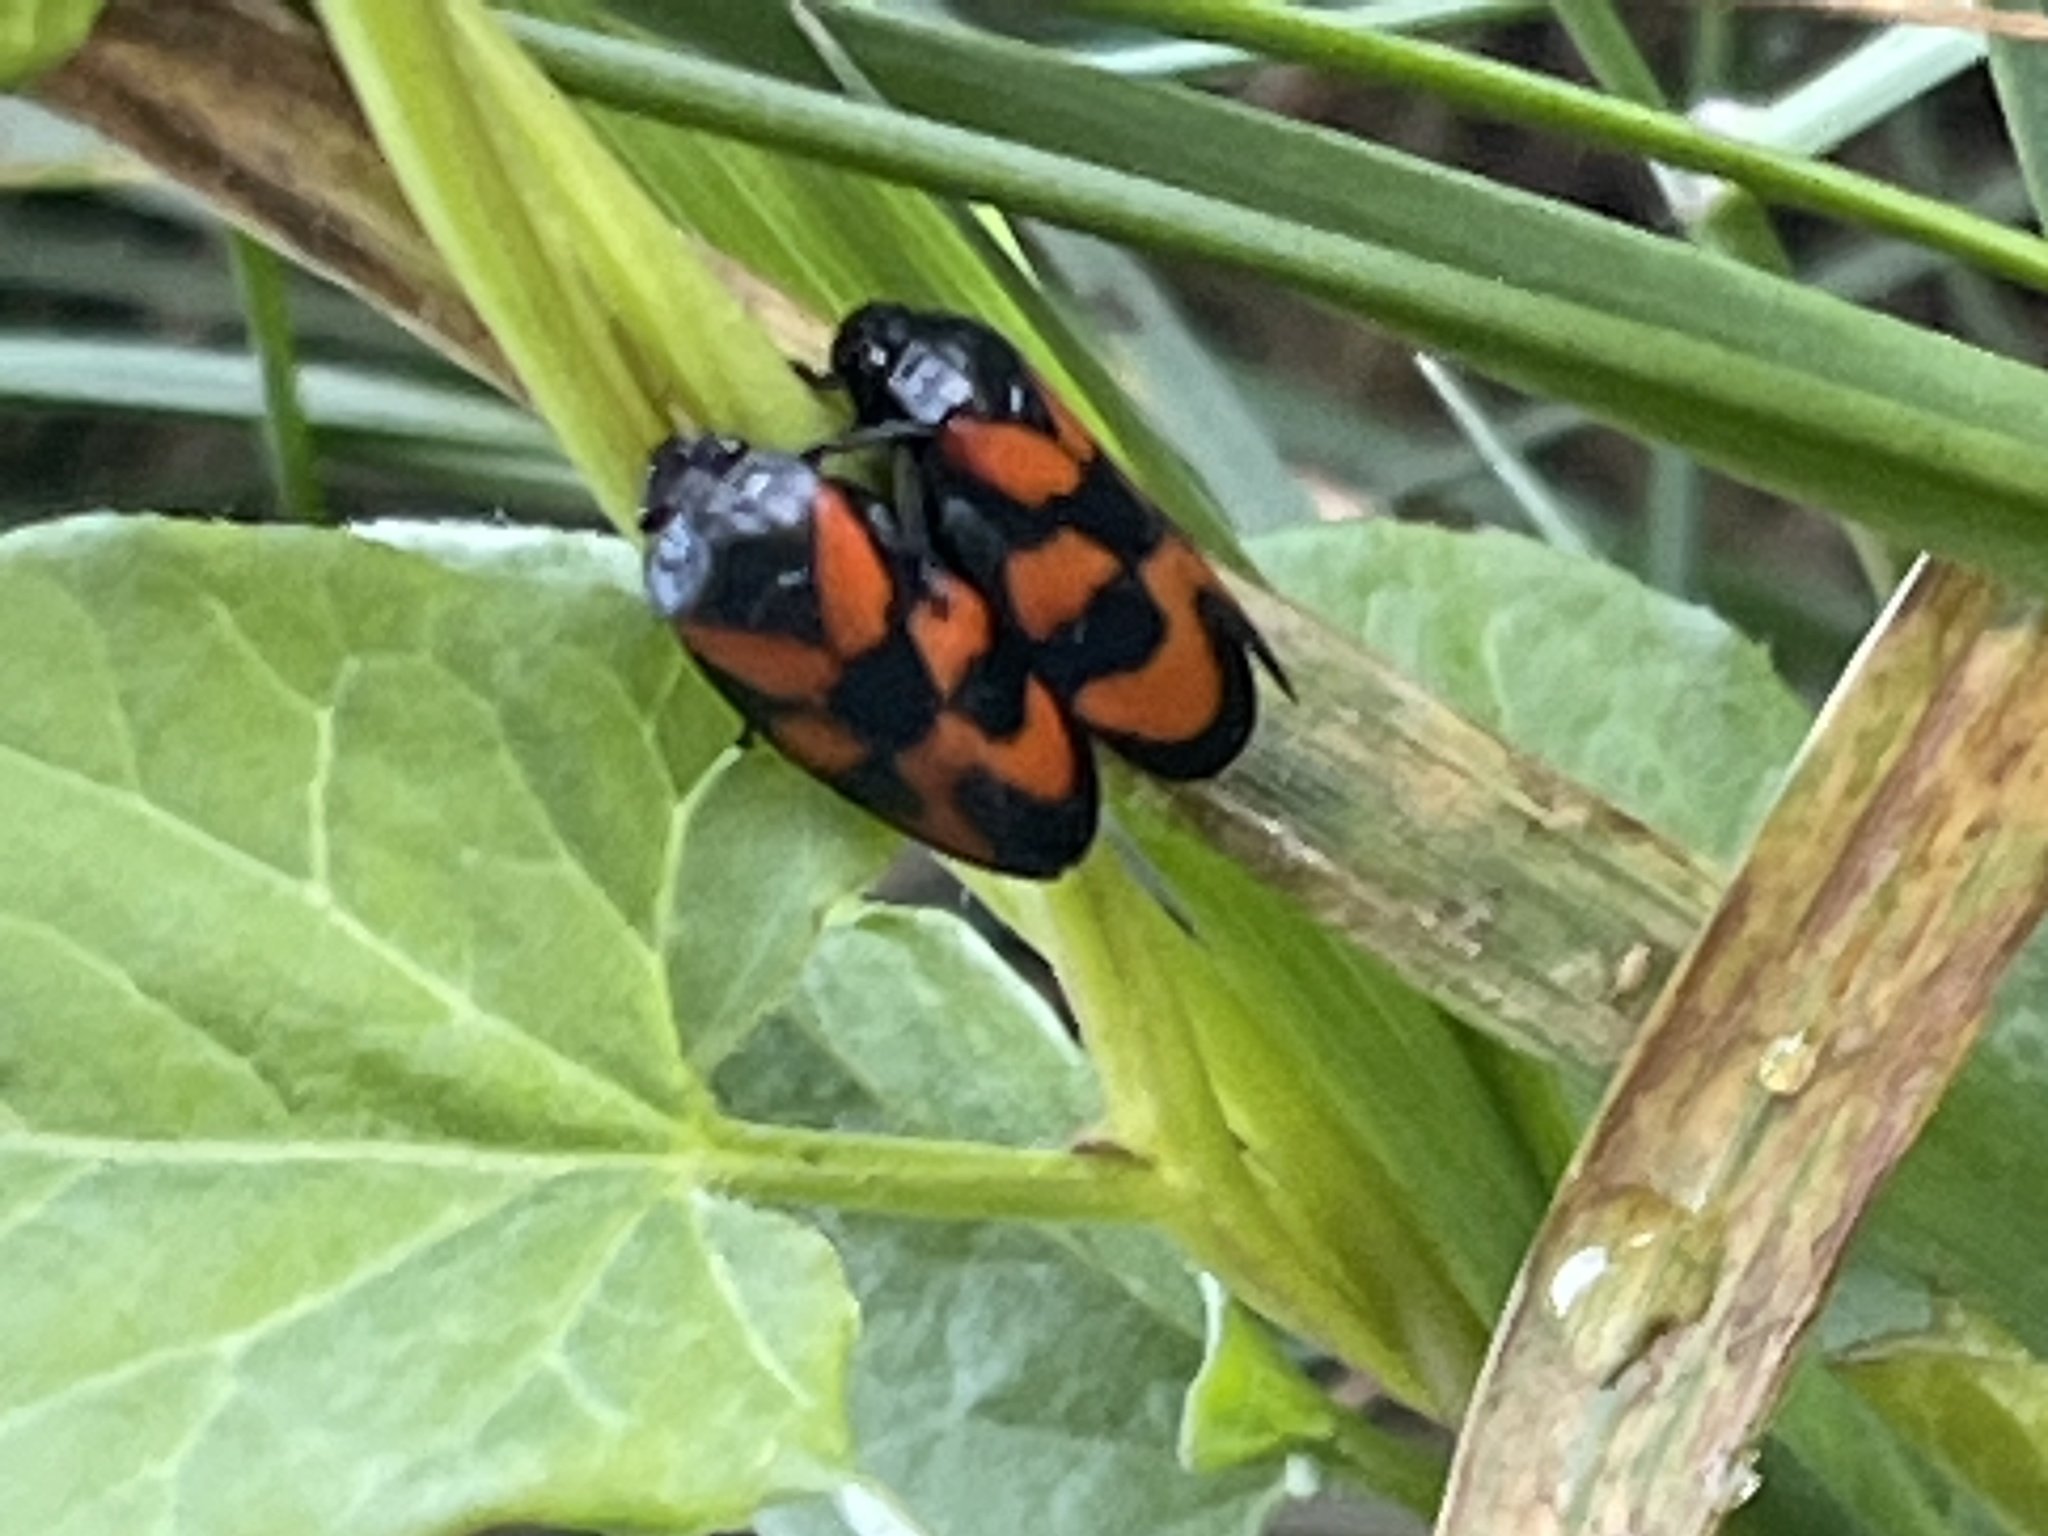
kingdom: Animalia
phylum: Arthropoda
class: Insecta
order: Hemiptera
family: Cercopidae
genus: Cercopis
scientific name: Cercopis vulnerata
